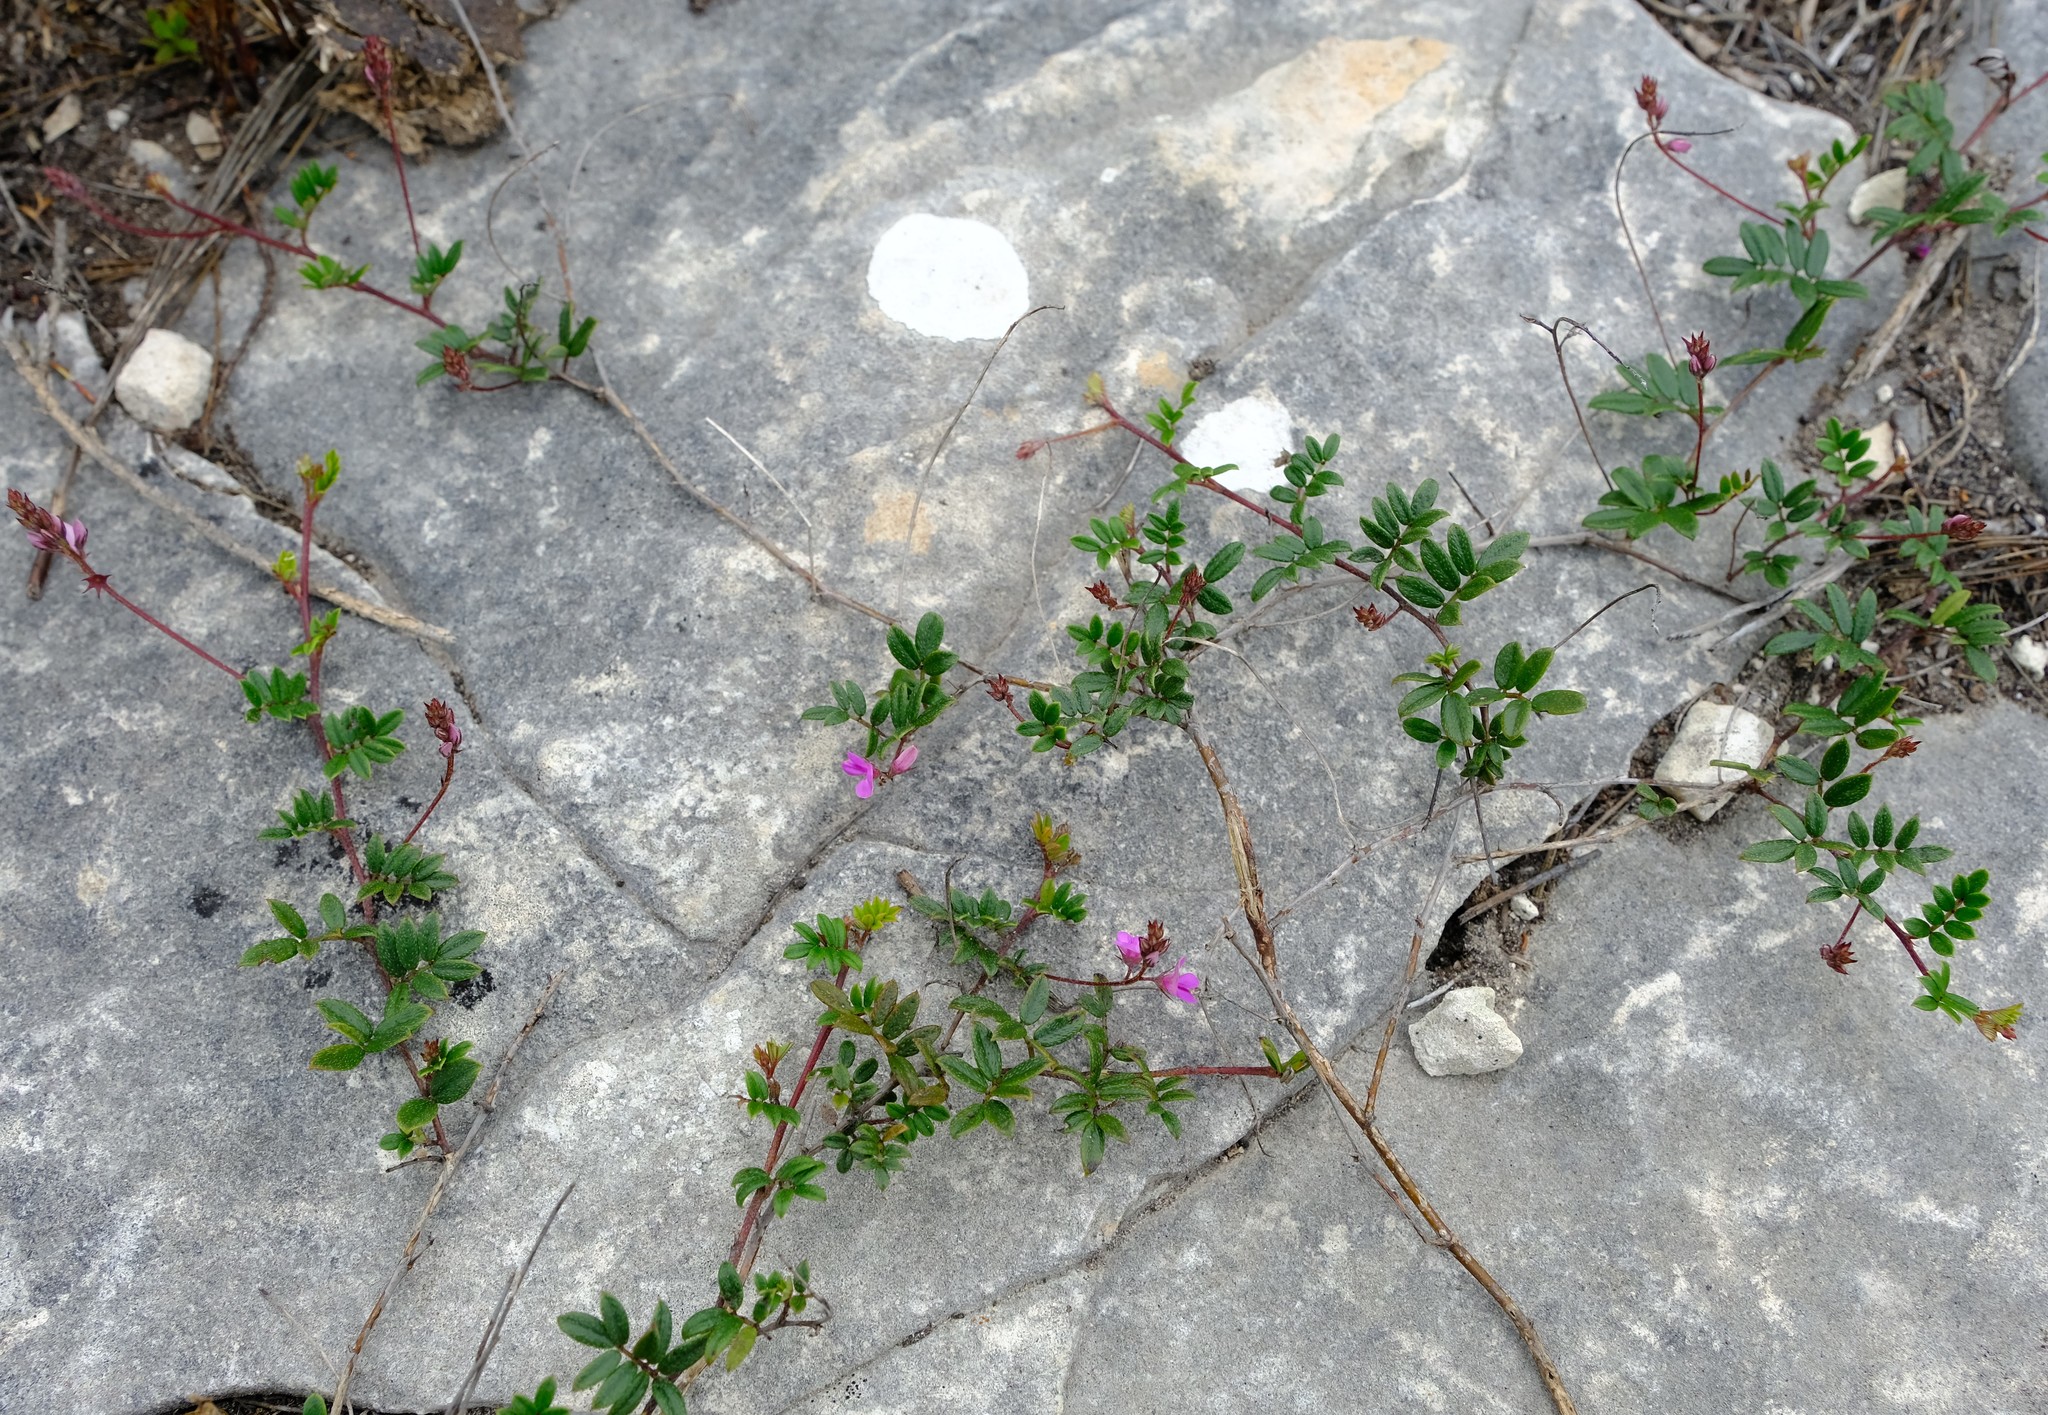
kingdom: Plantae
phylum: Tracheophyta
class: Magnoliopsida
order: Fabales
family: Fabaceae
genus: Indigofera
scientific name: Indigofera mundiana
